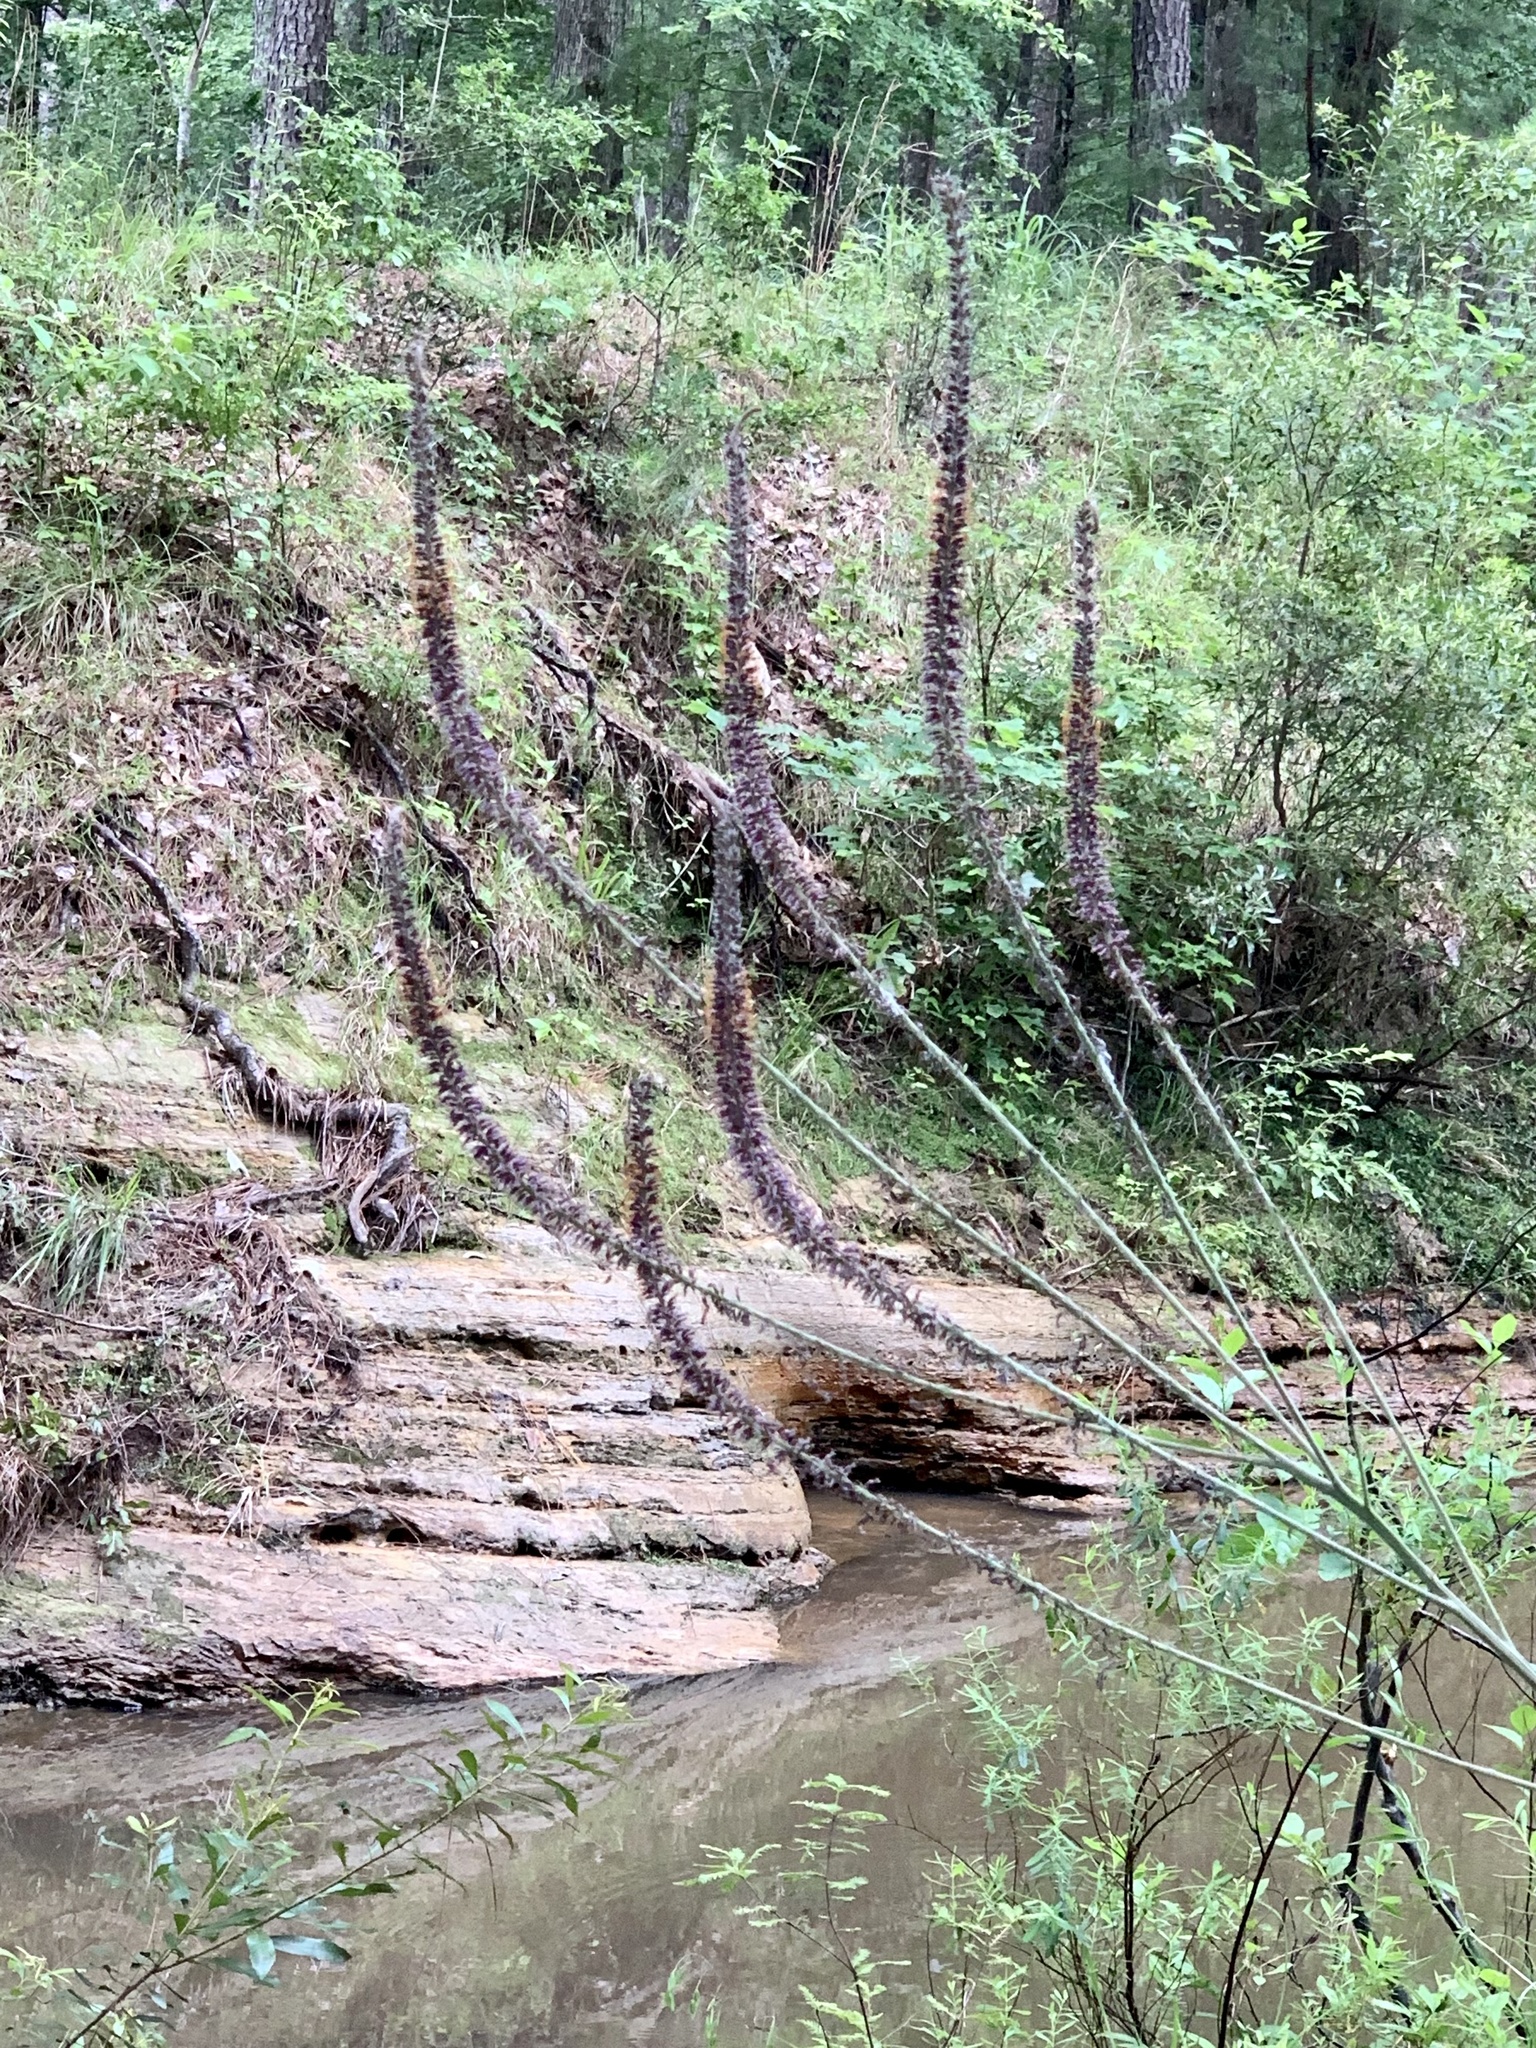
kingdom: Plantae
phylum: Tracheophyta
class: Magnoliopsida
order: Fabales
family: Fabaceae
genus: Amorpha
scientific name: Amorpha paniculata
